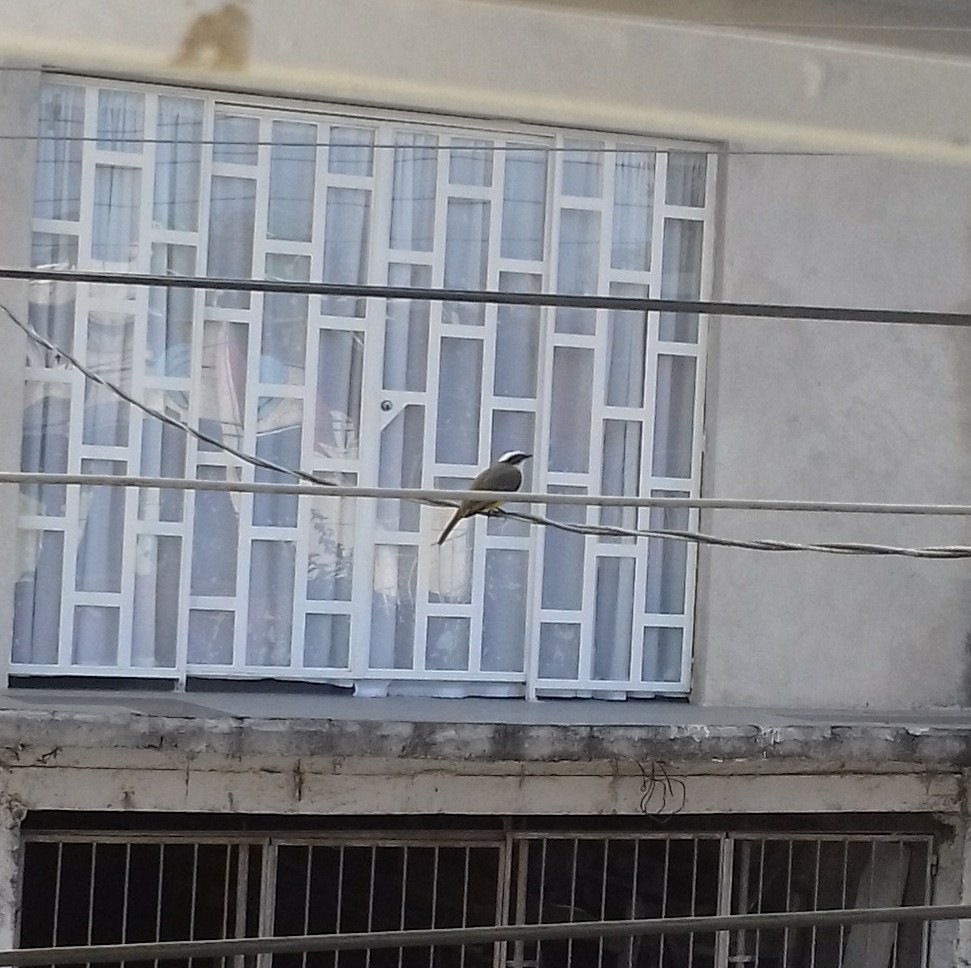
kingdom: Animalia
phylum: Chordata
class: Aves
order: Passeriformes
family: Tyrannidae
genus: Myiozetetes
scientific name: Myiozetetes similis
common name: Social flycatcher
